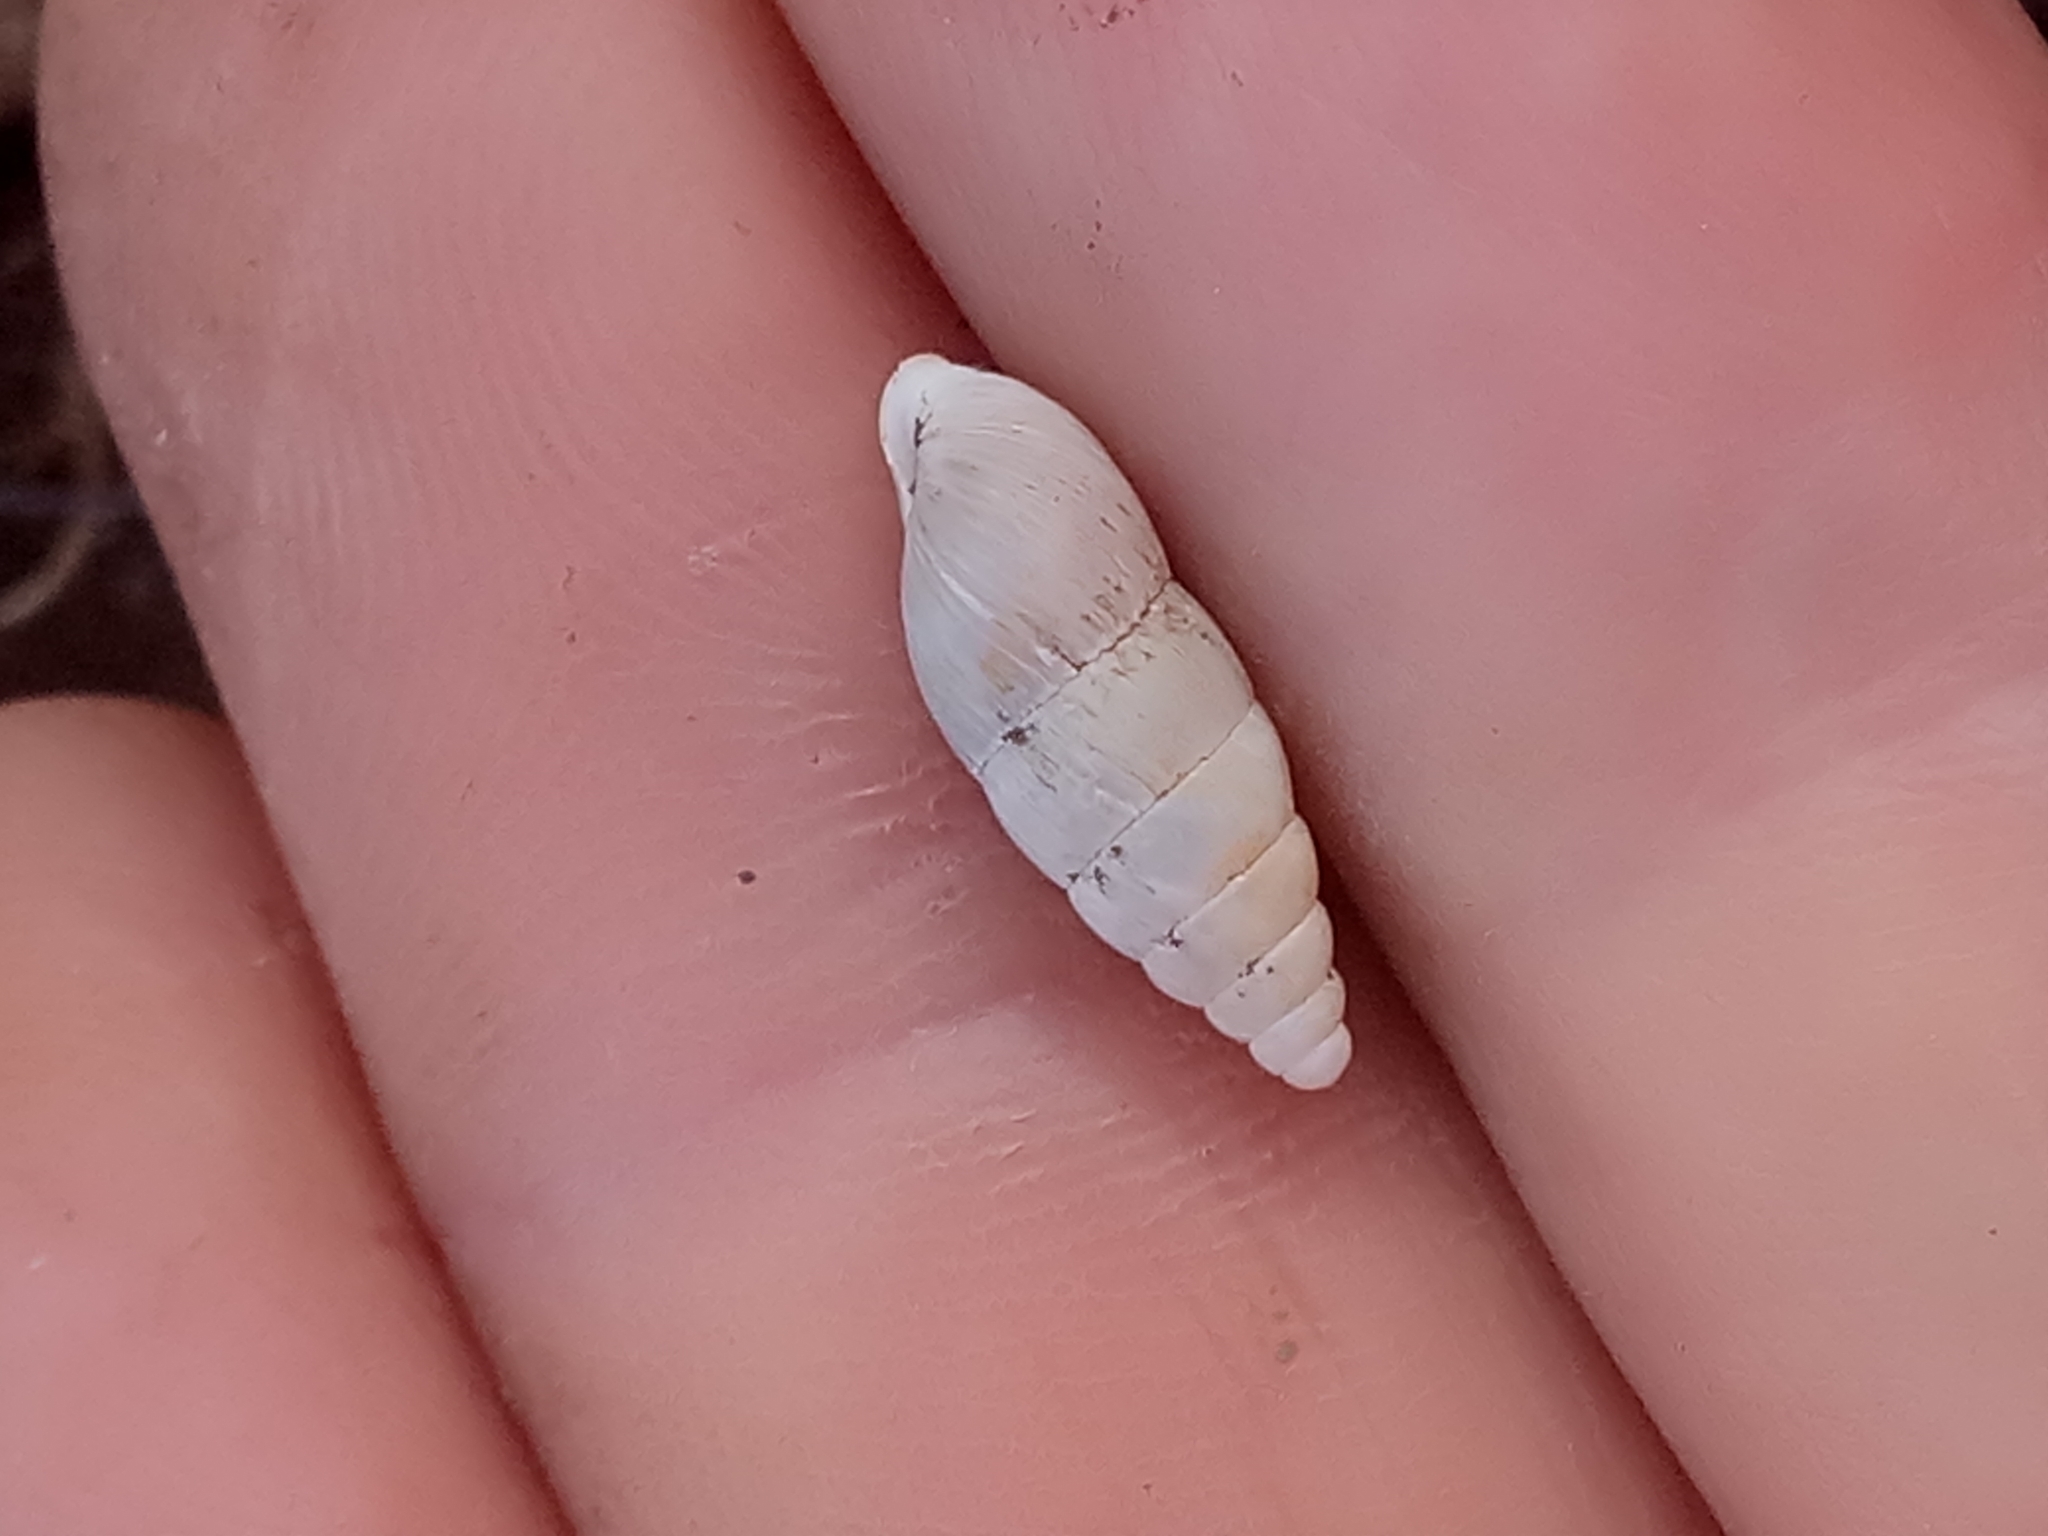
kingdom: Animalia
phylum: Mollusca
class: Gastropoda
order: Stylommatophora
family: Enidae
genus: Mastus
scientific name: Mastus pupa
